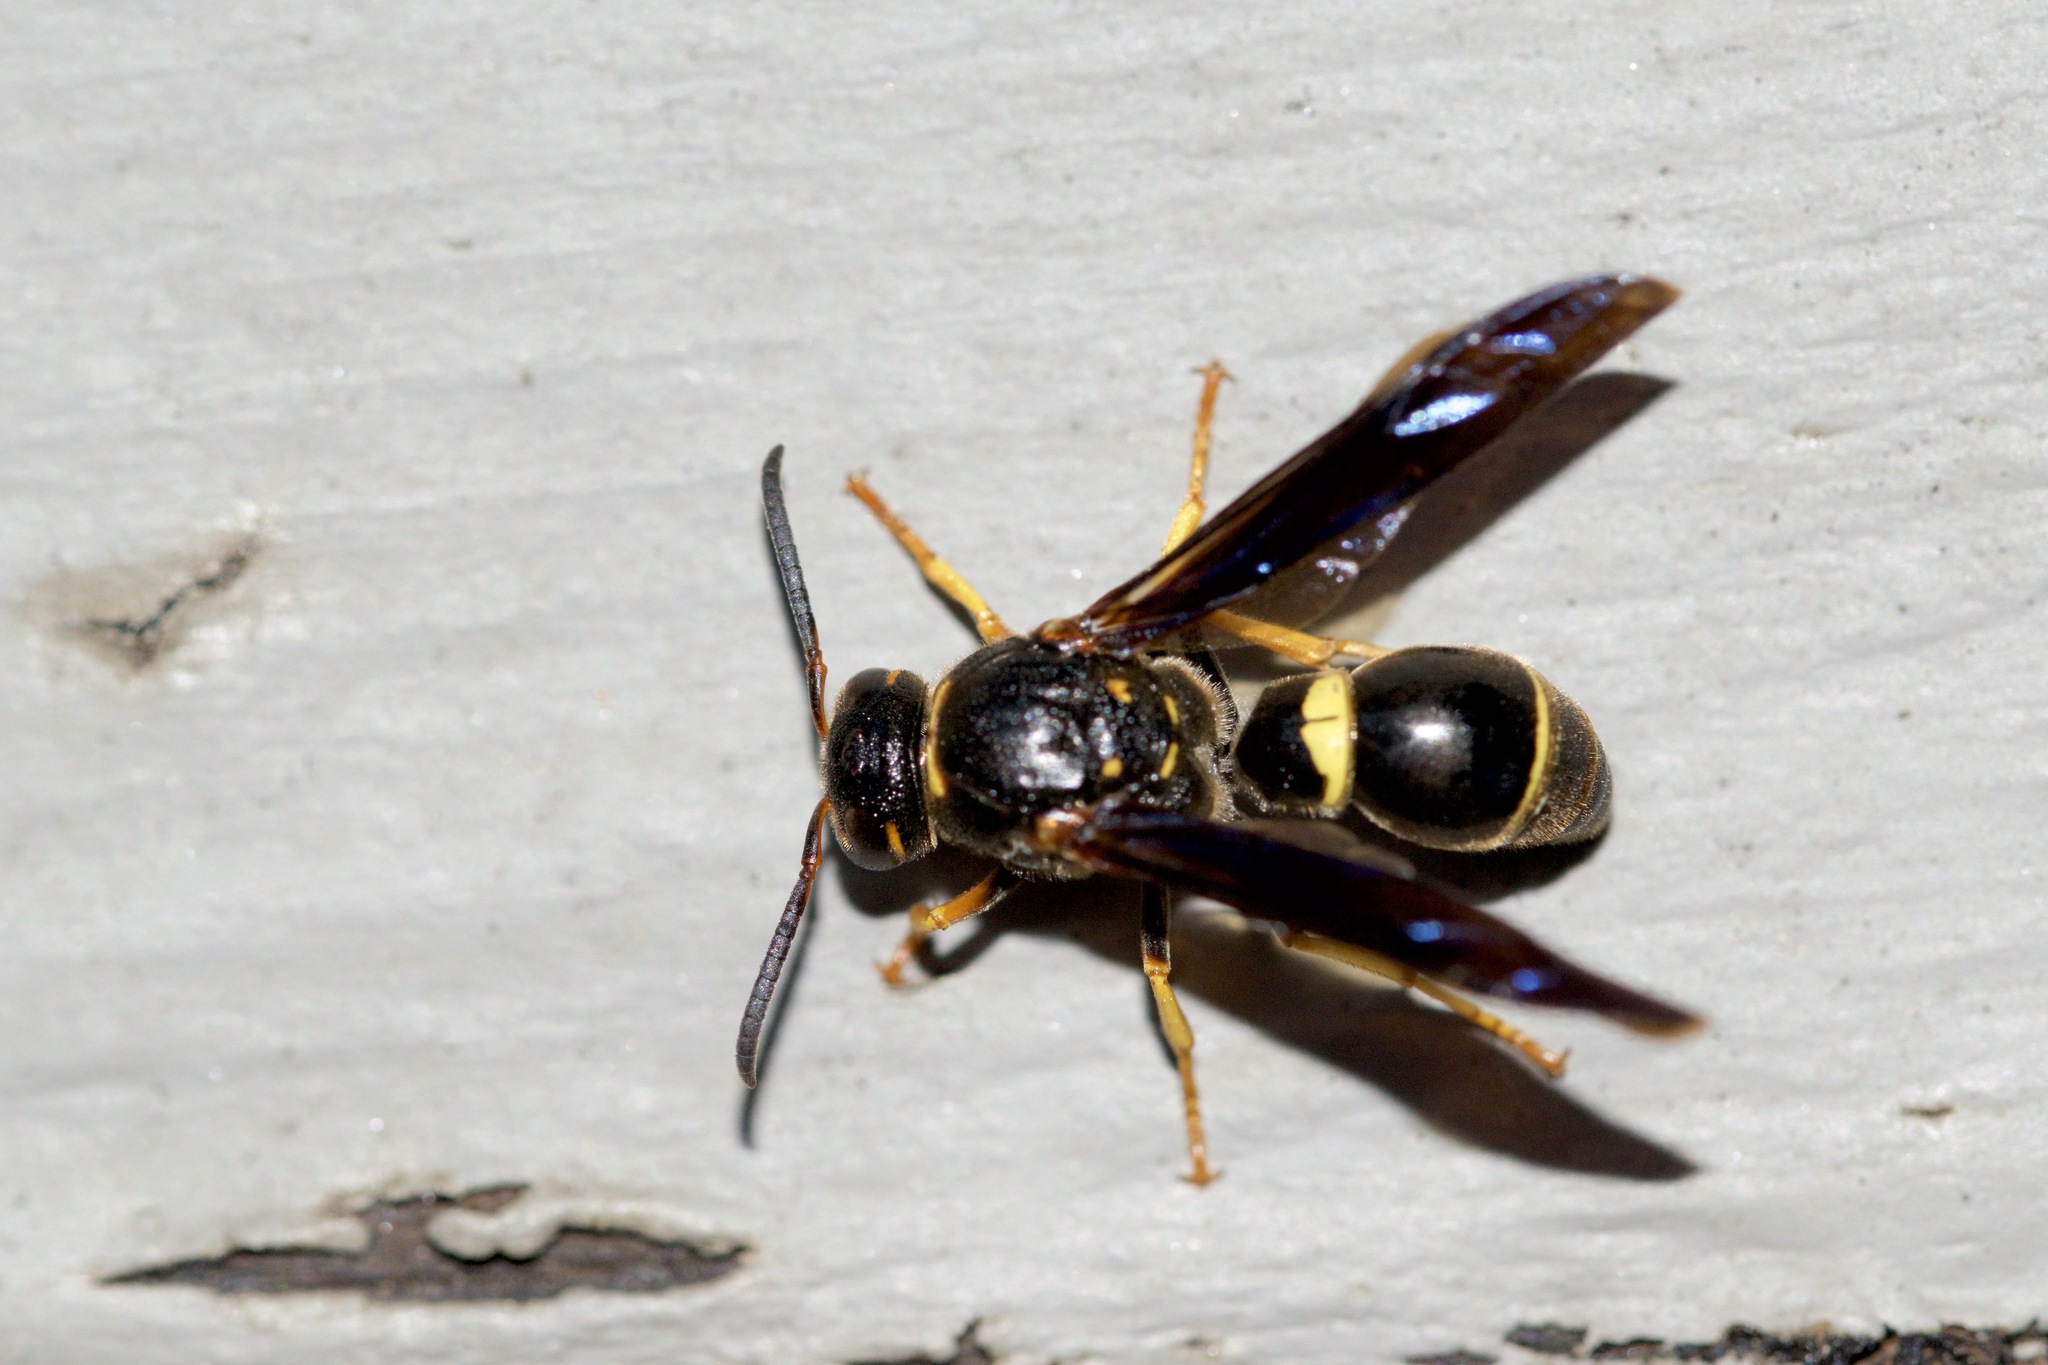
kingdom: Animalia
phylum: Arthropoda
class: Insecta
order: Hymenoptera
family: Eumenidae
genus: Parazumia
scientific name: Parazumia symmorpha
